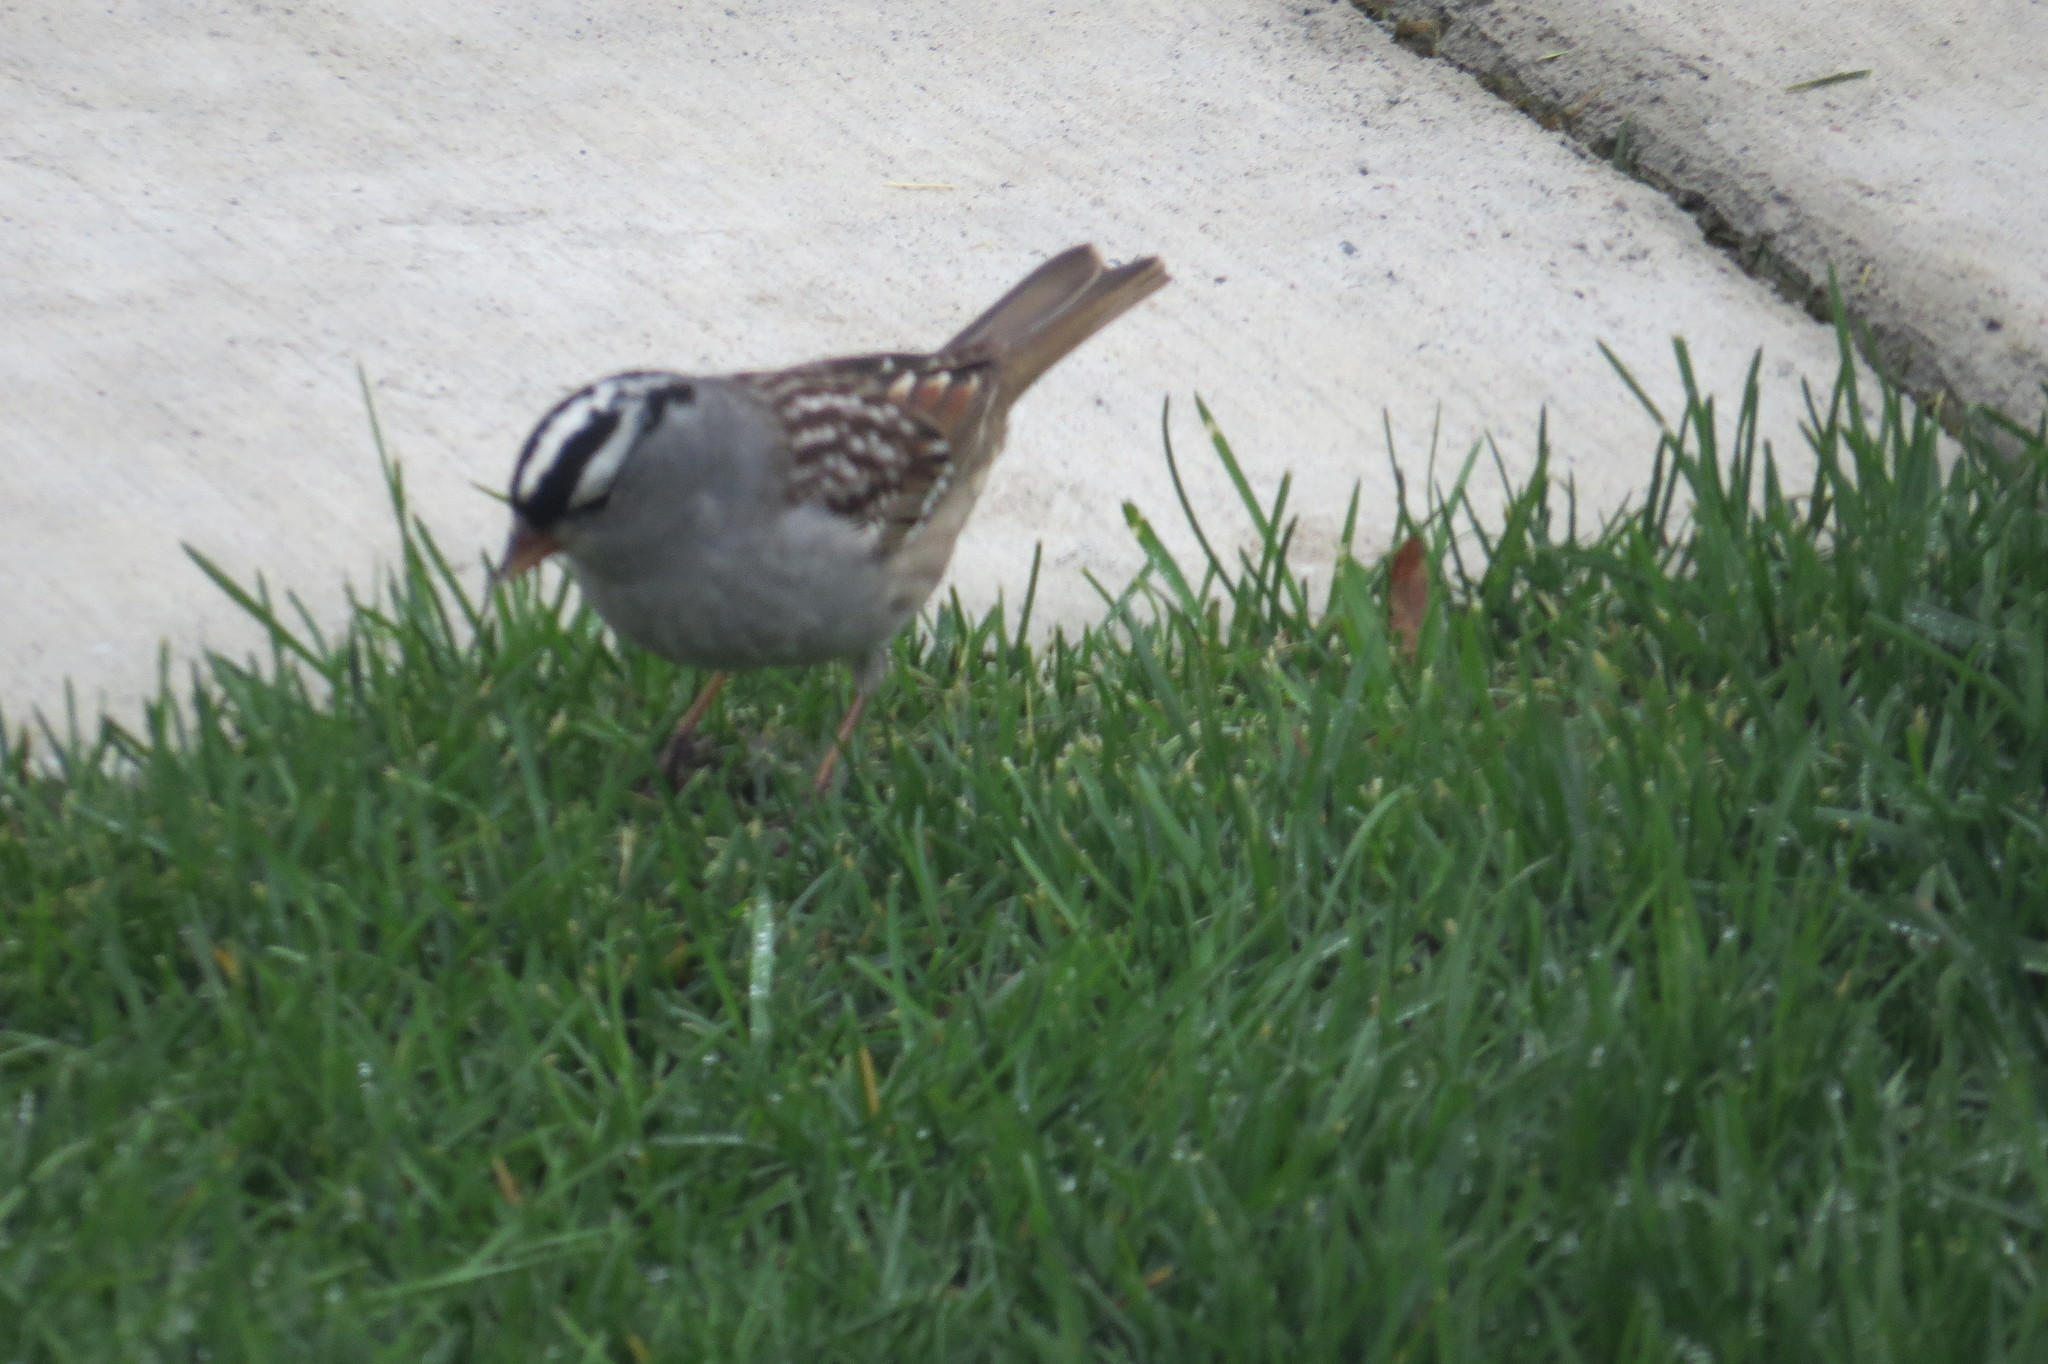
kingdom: Animalia
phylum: Chordata
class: Aves
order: Passeriformes
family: Passerellidae
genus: Zonotrichia
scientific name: Zonotrichia leucophrys
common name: White-crowned sparrow
